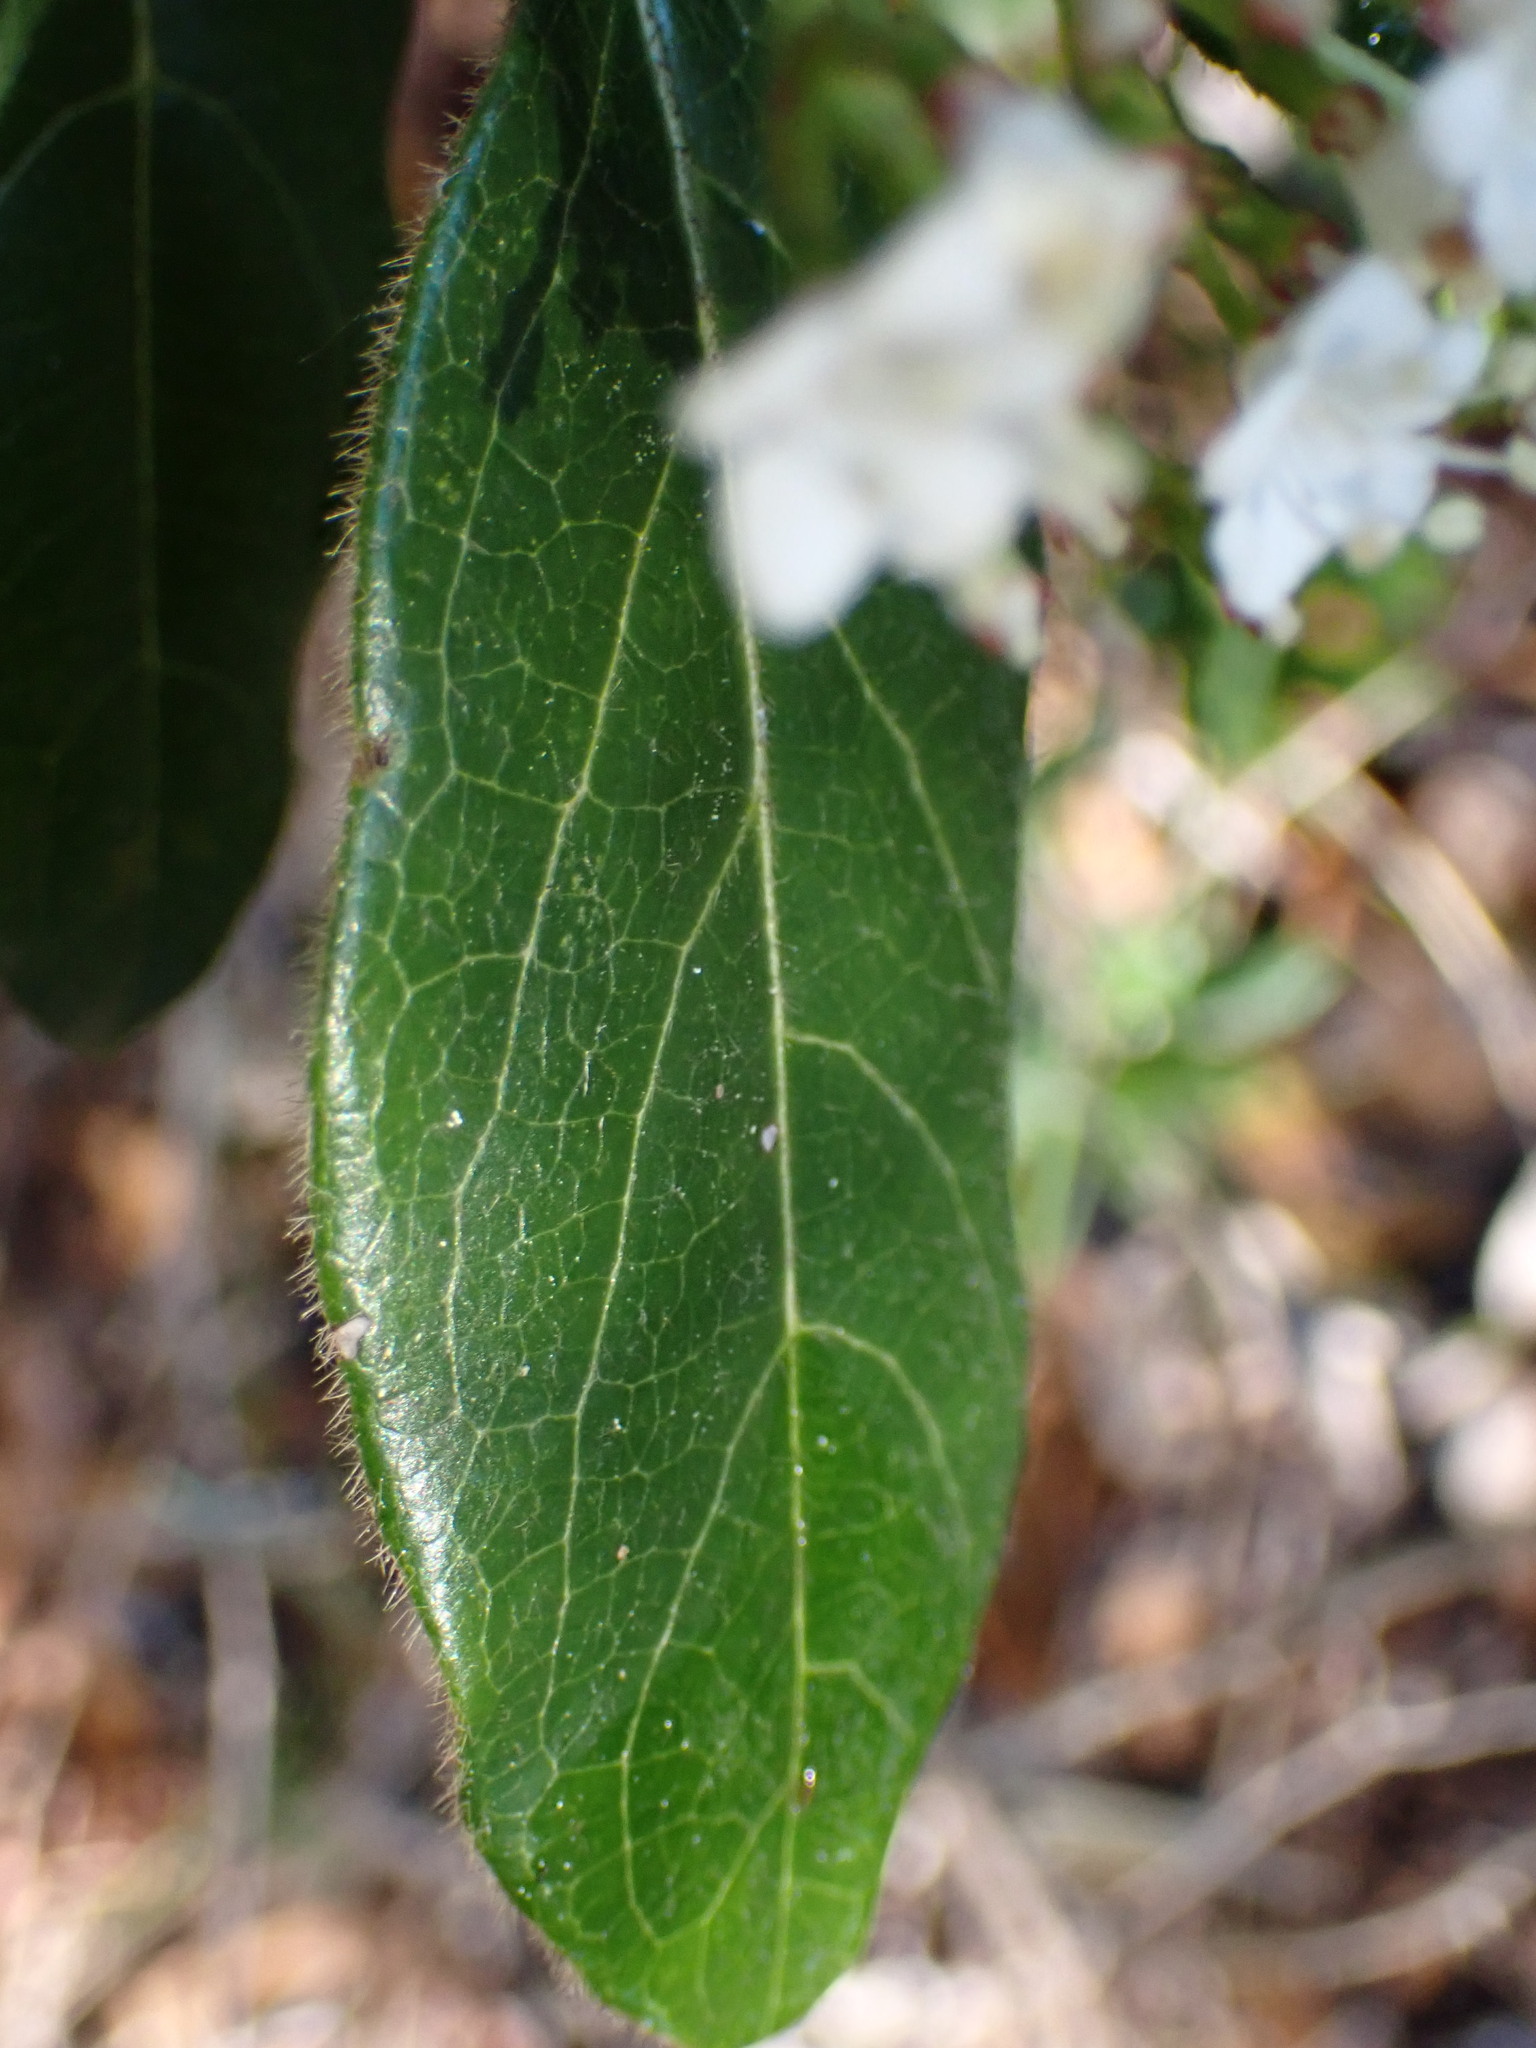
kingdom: Plantae
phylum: Tracheophyta
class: Magnoliopsida
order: Dipsacales
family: Viburnaceae
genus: Viburnum
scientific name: Viburnum tinus
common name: Laurustinus
